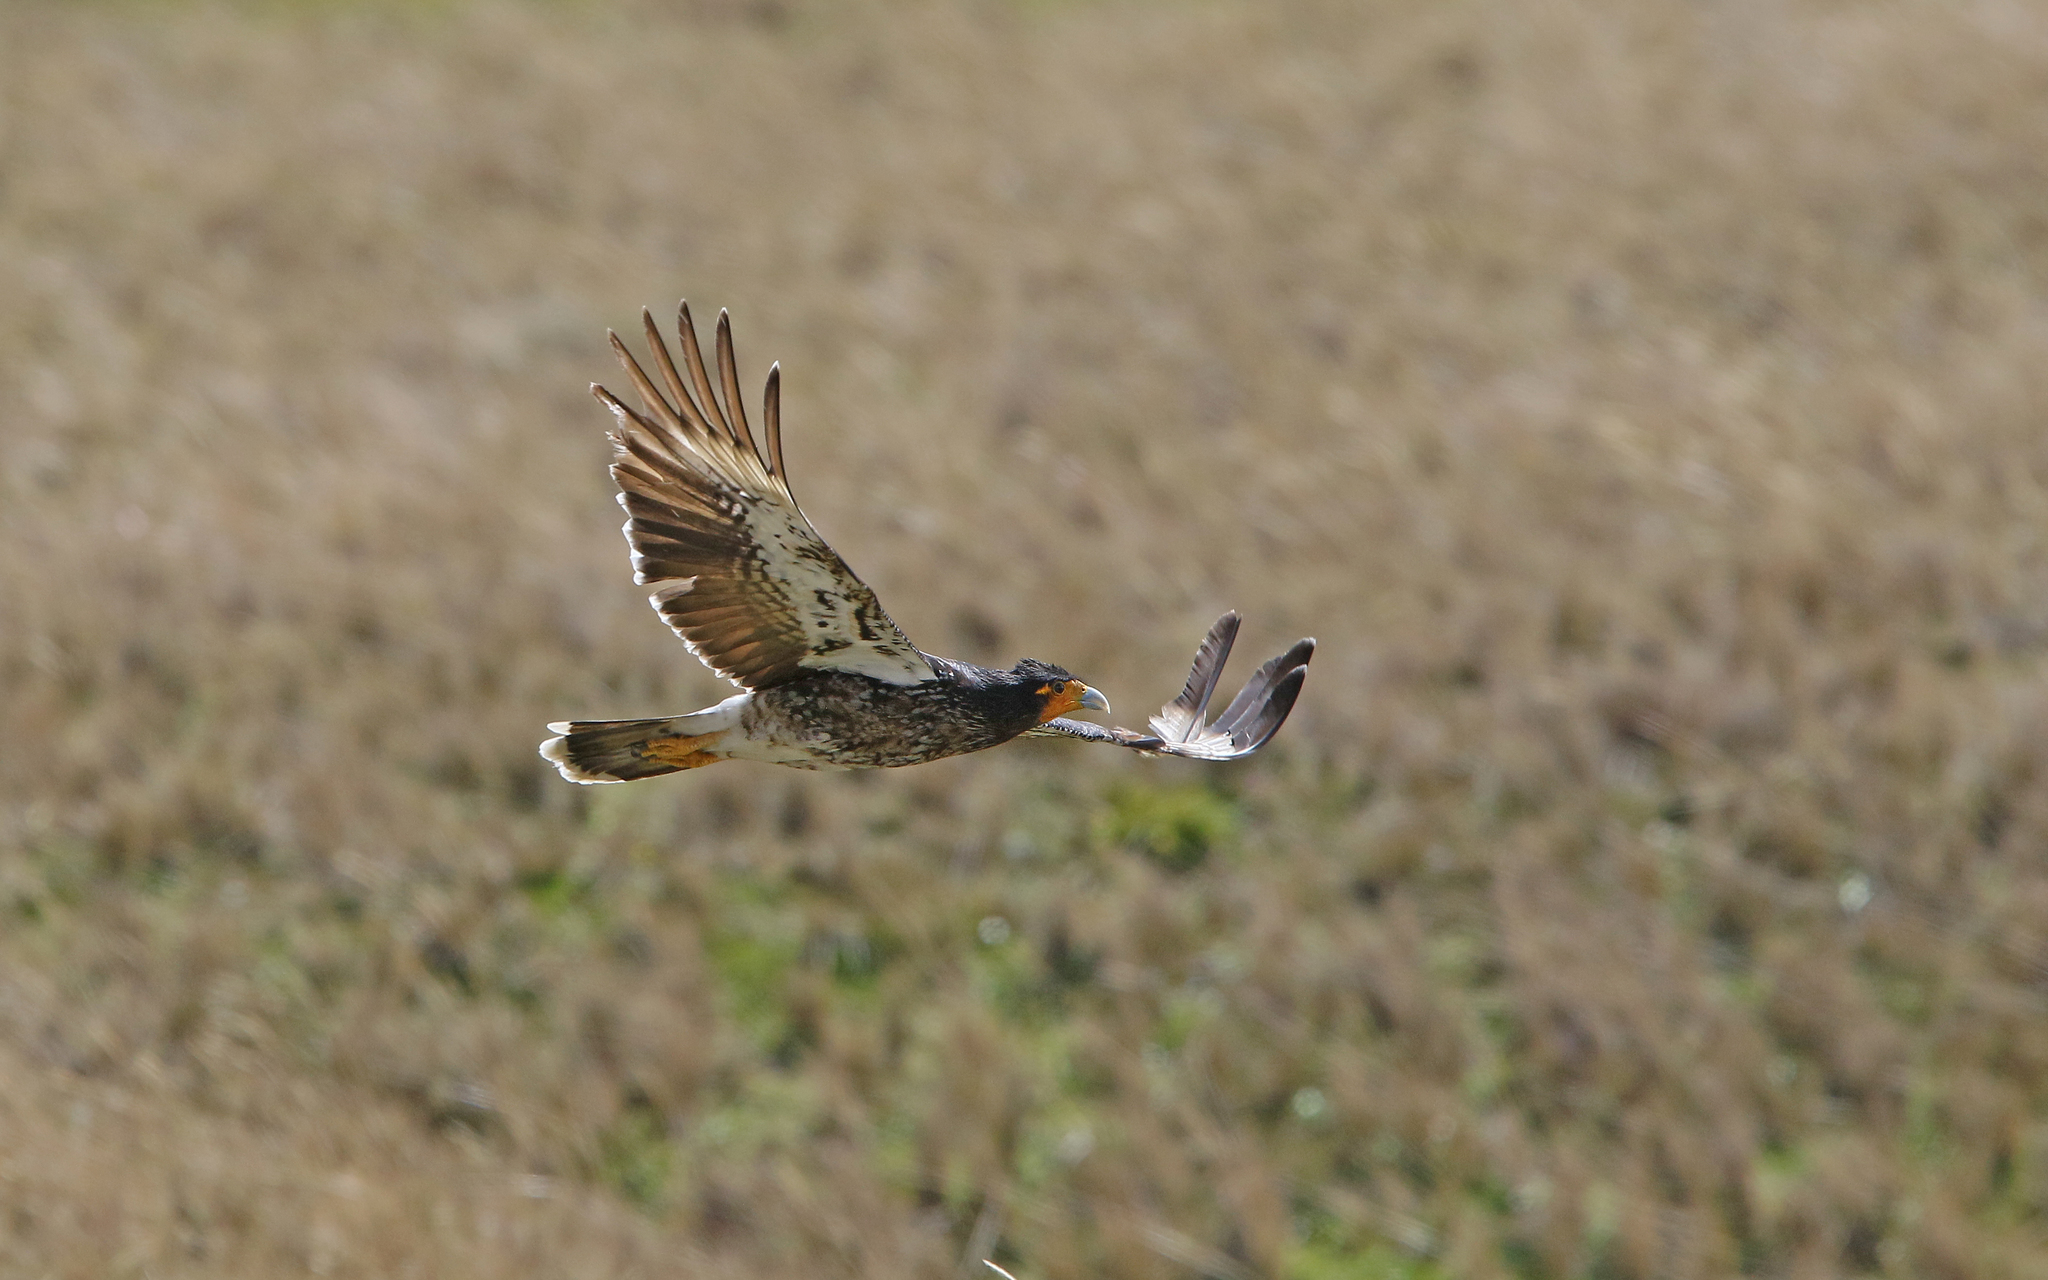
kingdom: Animalia
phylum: Chordata
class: Aves
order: Falconiformes
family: Falconidae
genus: Daptrius
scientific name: Daptrius
